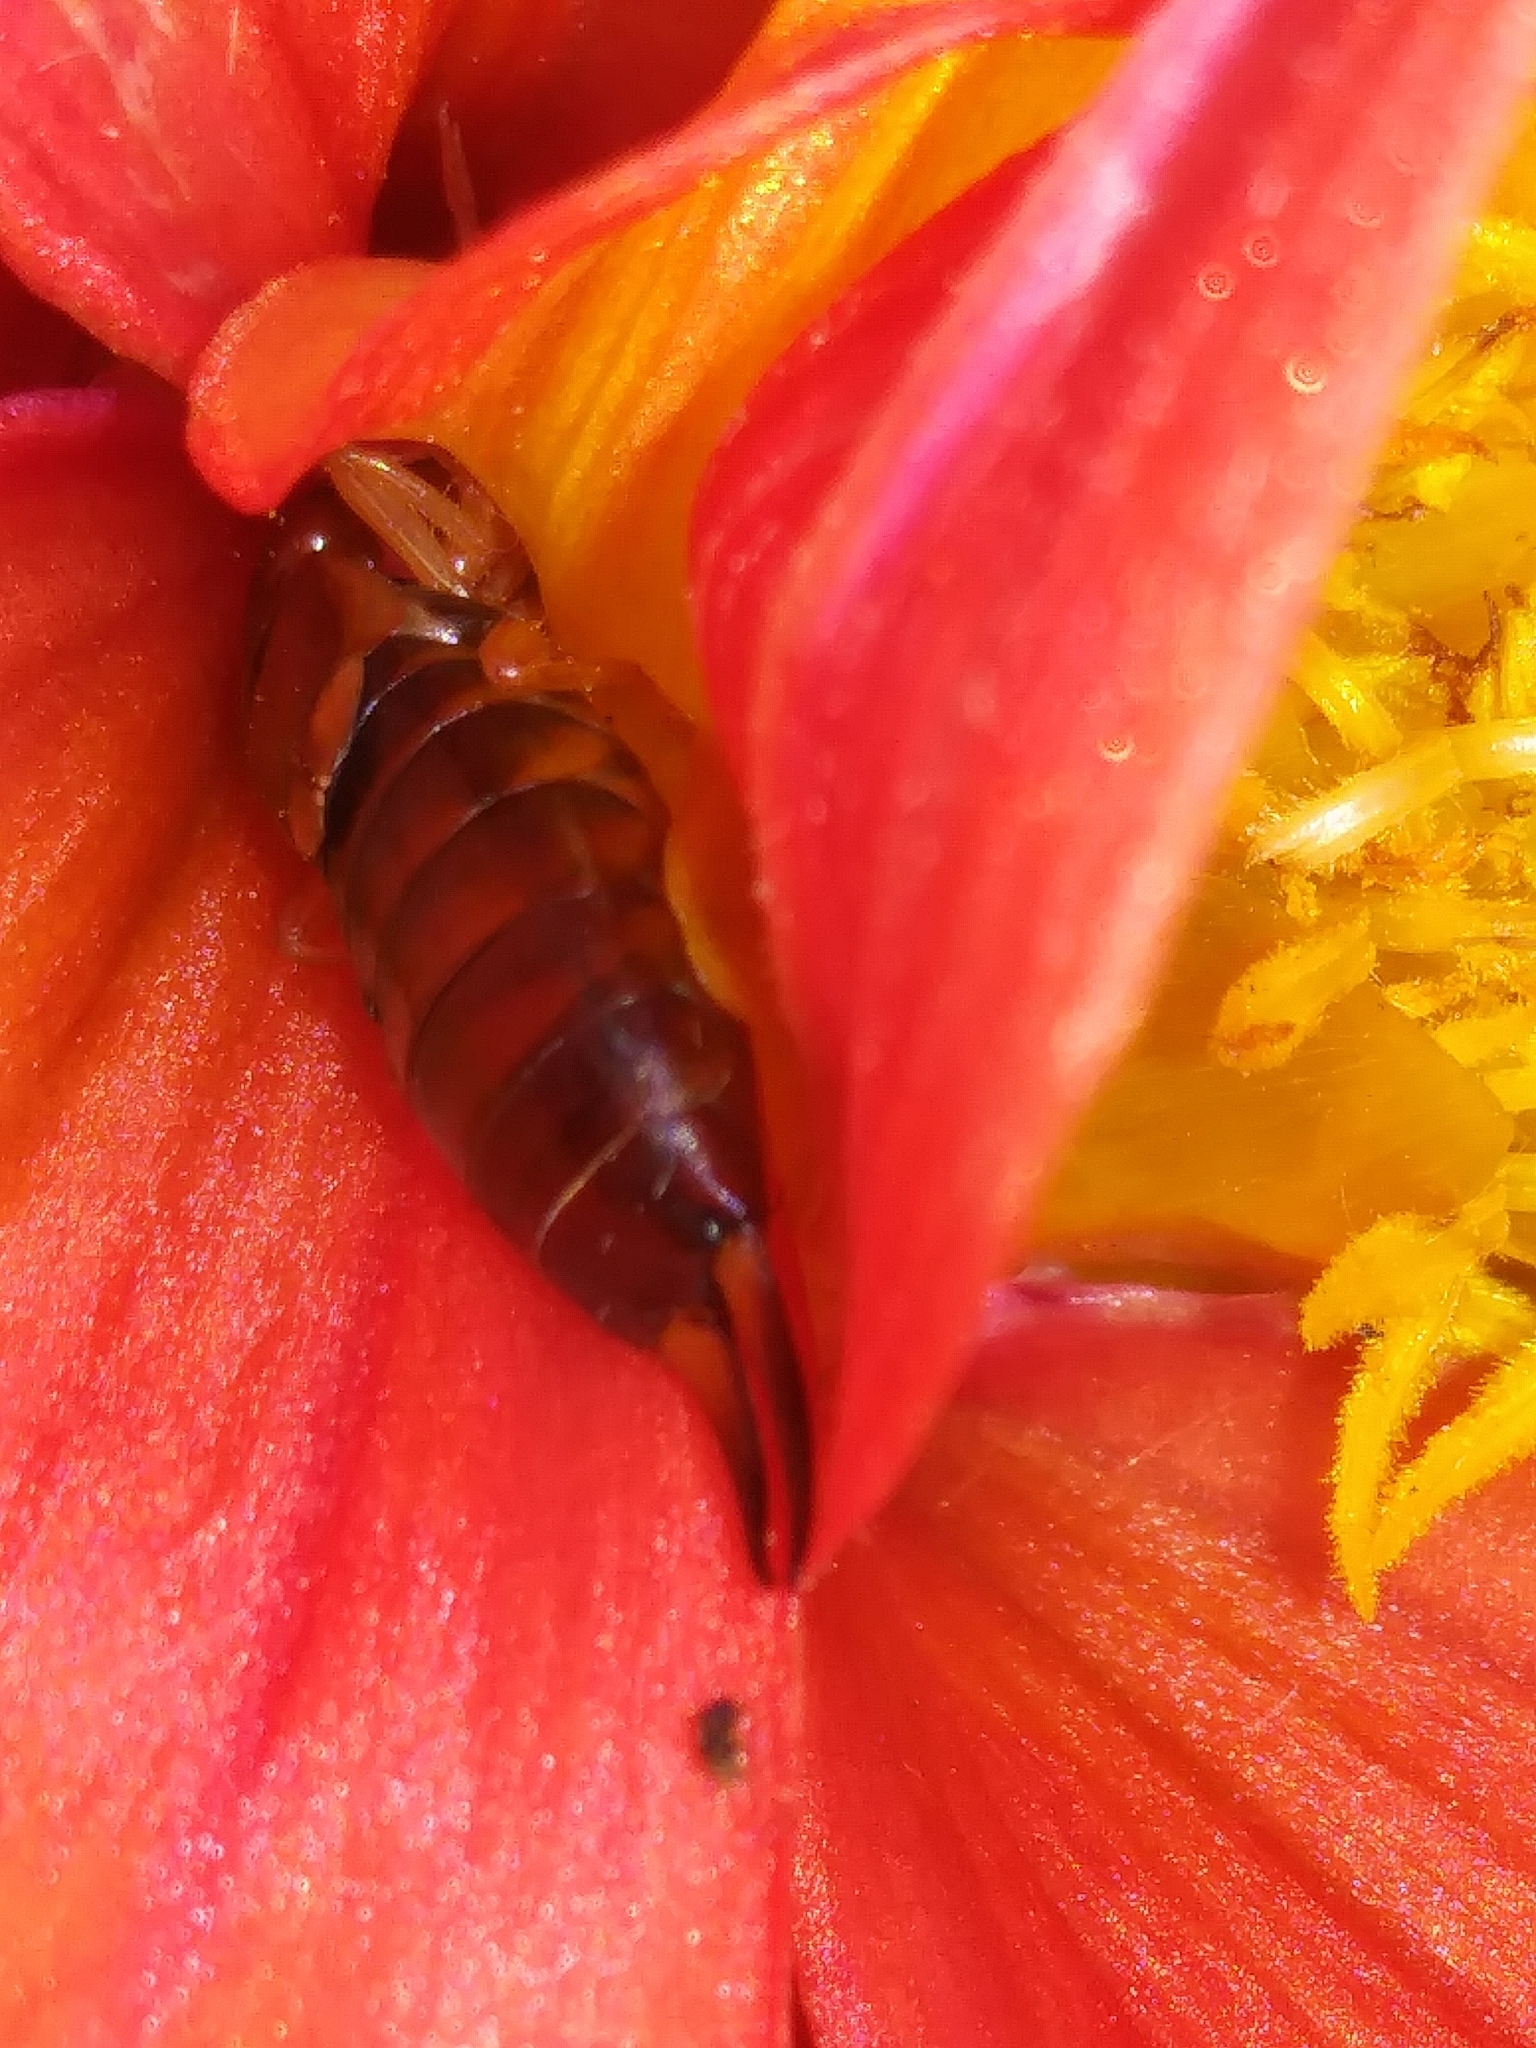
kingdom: Animalia
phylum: Arthropoda
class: Insecta
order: Dermaptera
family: Forficulidae
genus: Forficula
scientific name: Forficula
